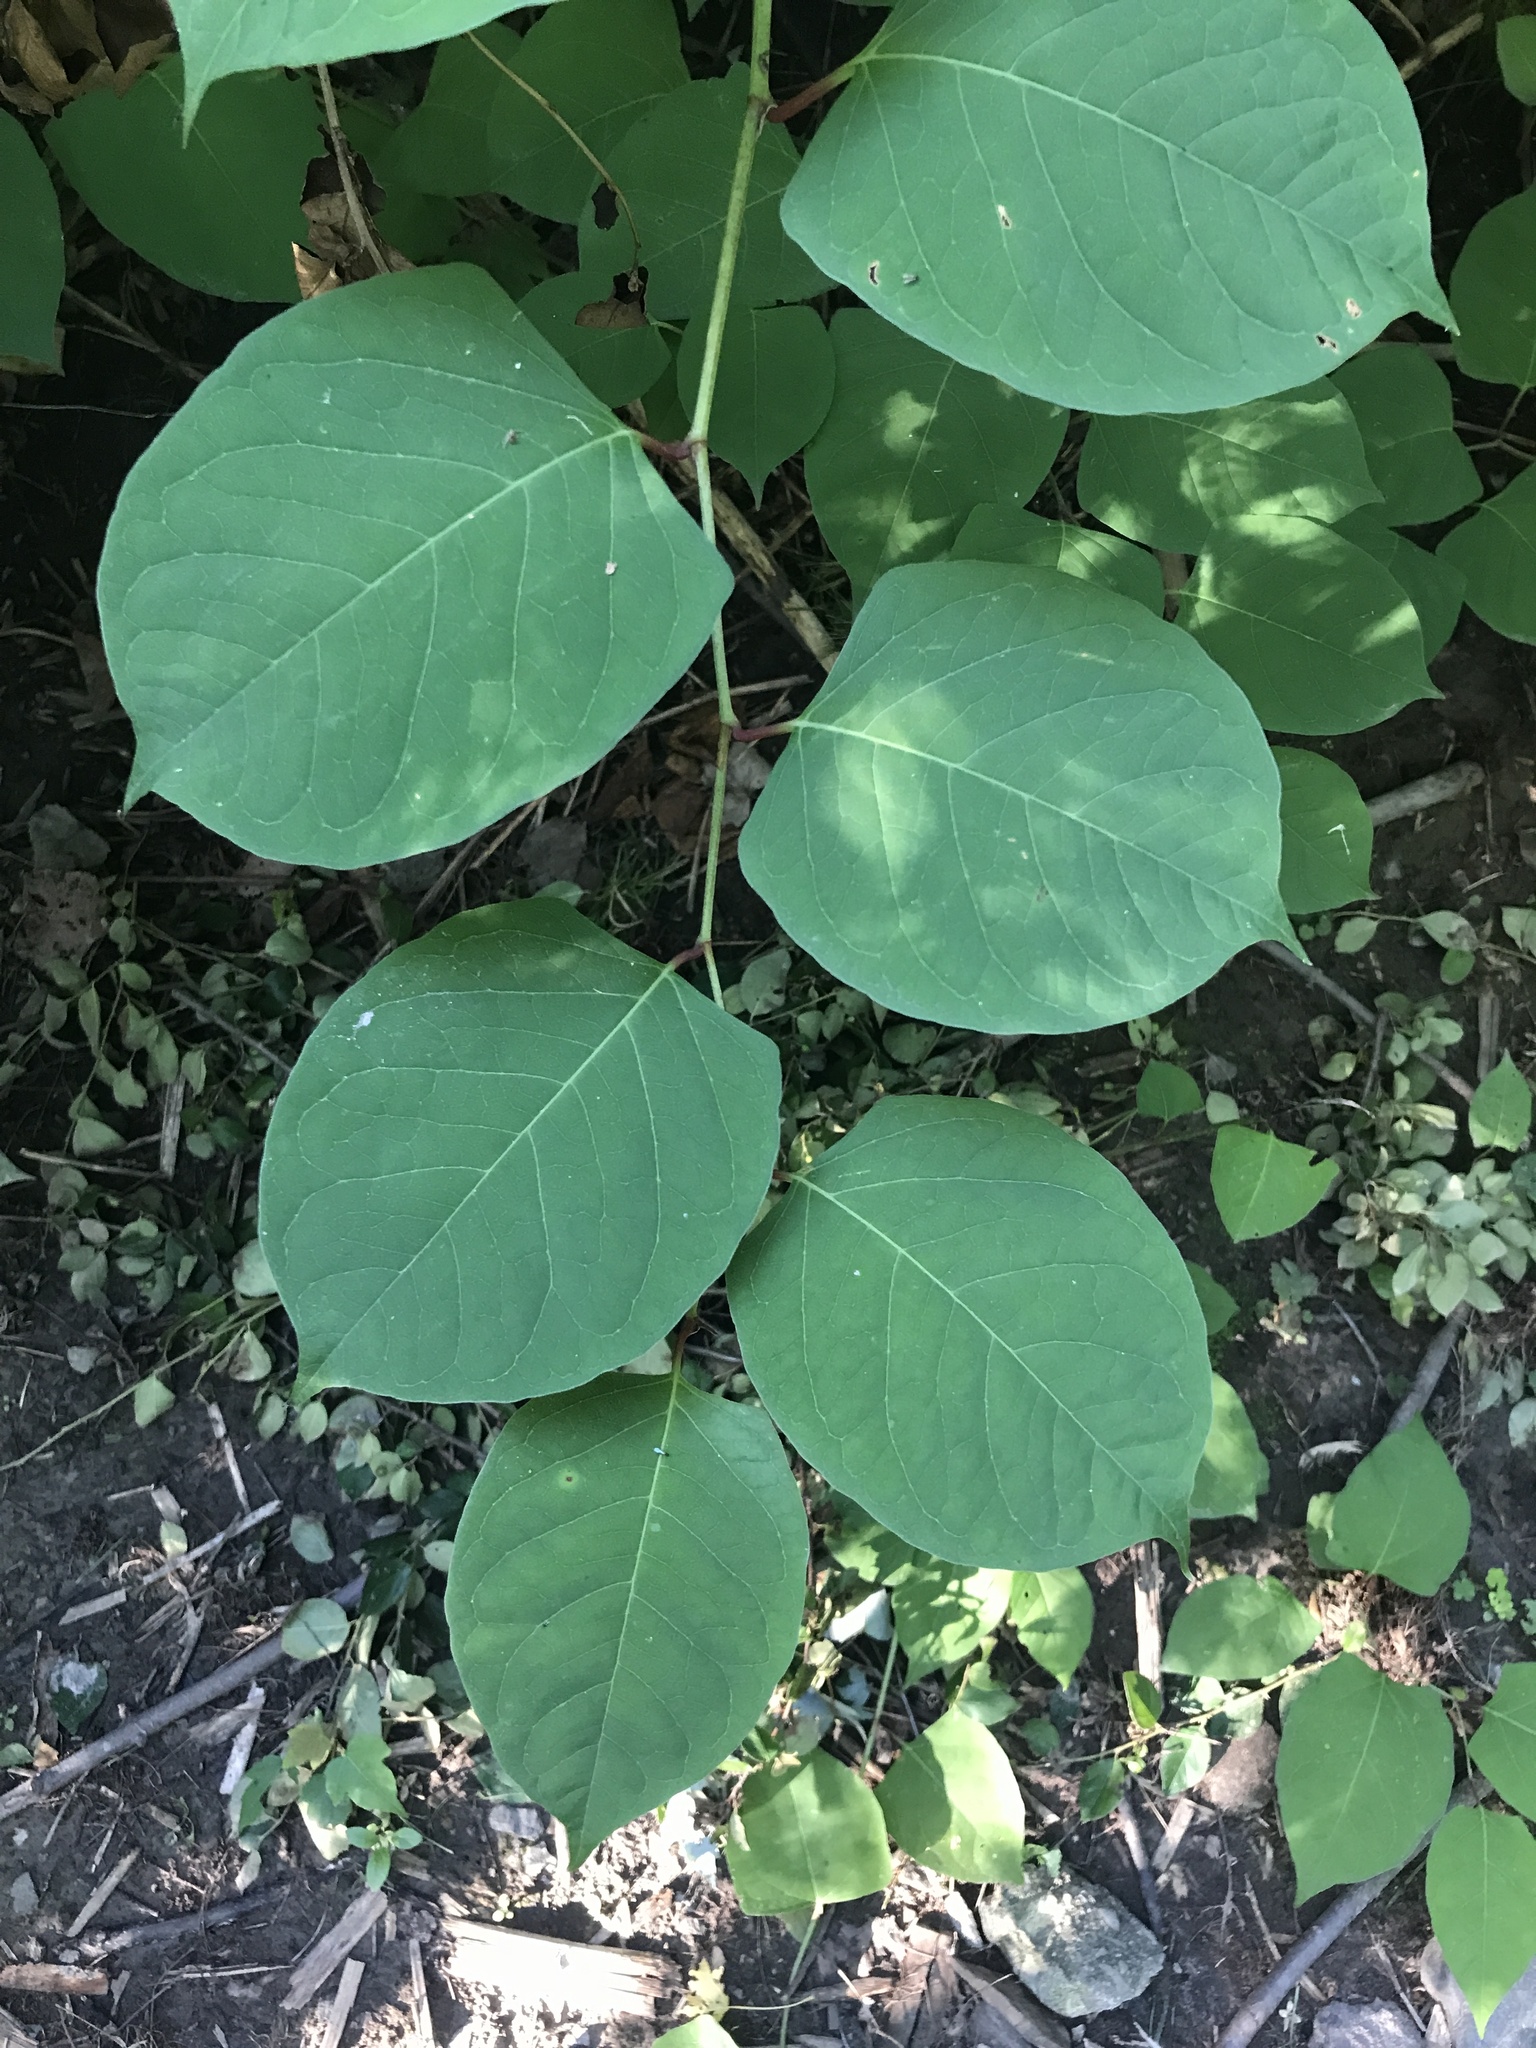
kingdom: Plantae
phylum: Tracheophyta
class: Magnoliopsida
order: Caryophyllales
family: Polygonaceae
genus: Reynoutria
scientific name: Reynoutria japonica
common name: Japanese knotweed
